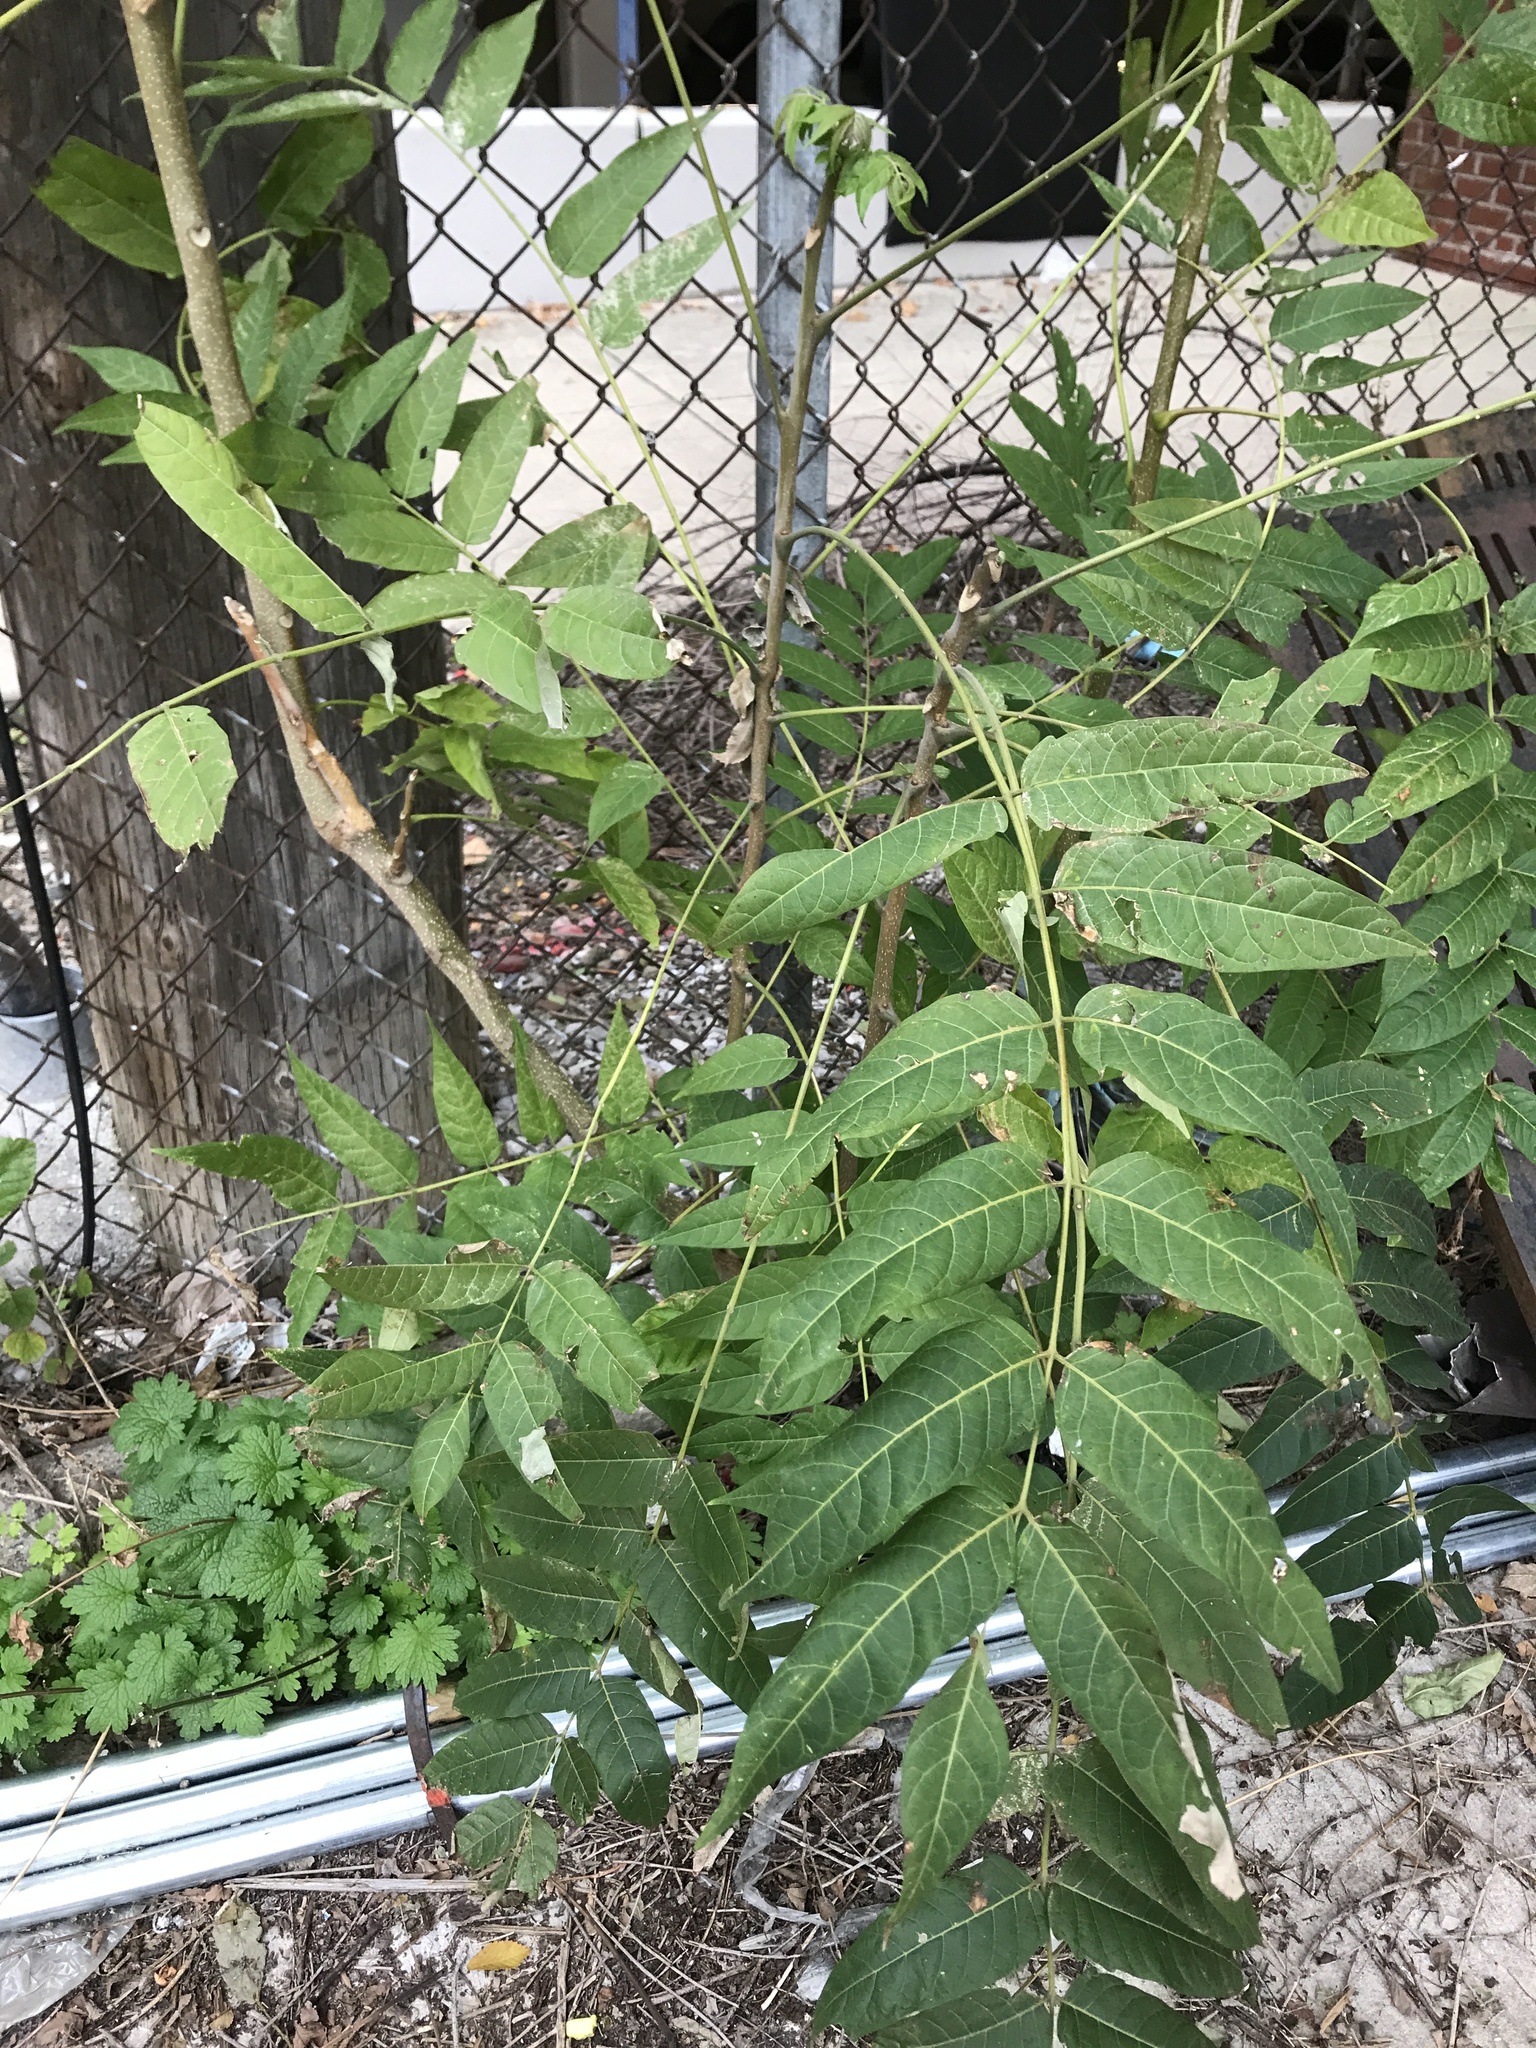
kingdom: Plantae
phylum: Tracheophyta
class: Magnoliopsida
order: Sapindales
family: Simaroubaceae
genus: Ailanthus
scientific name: Ailanthus altissima
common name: Tree-of-heaven
